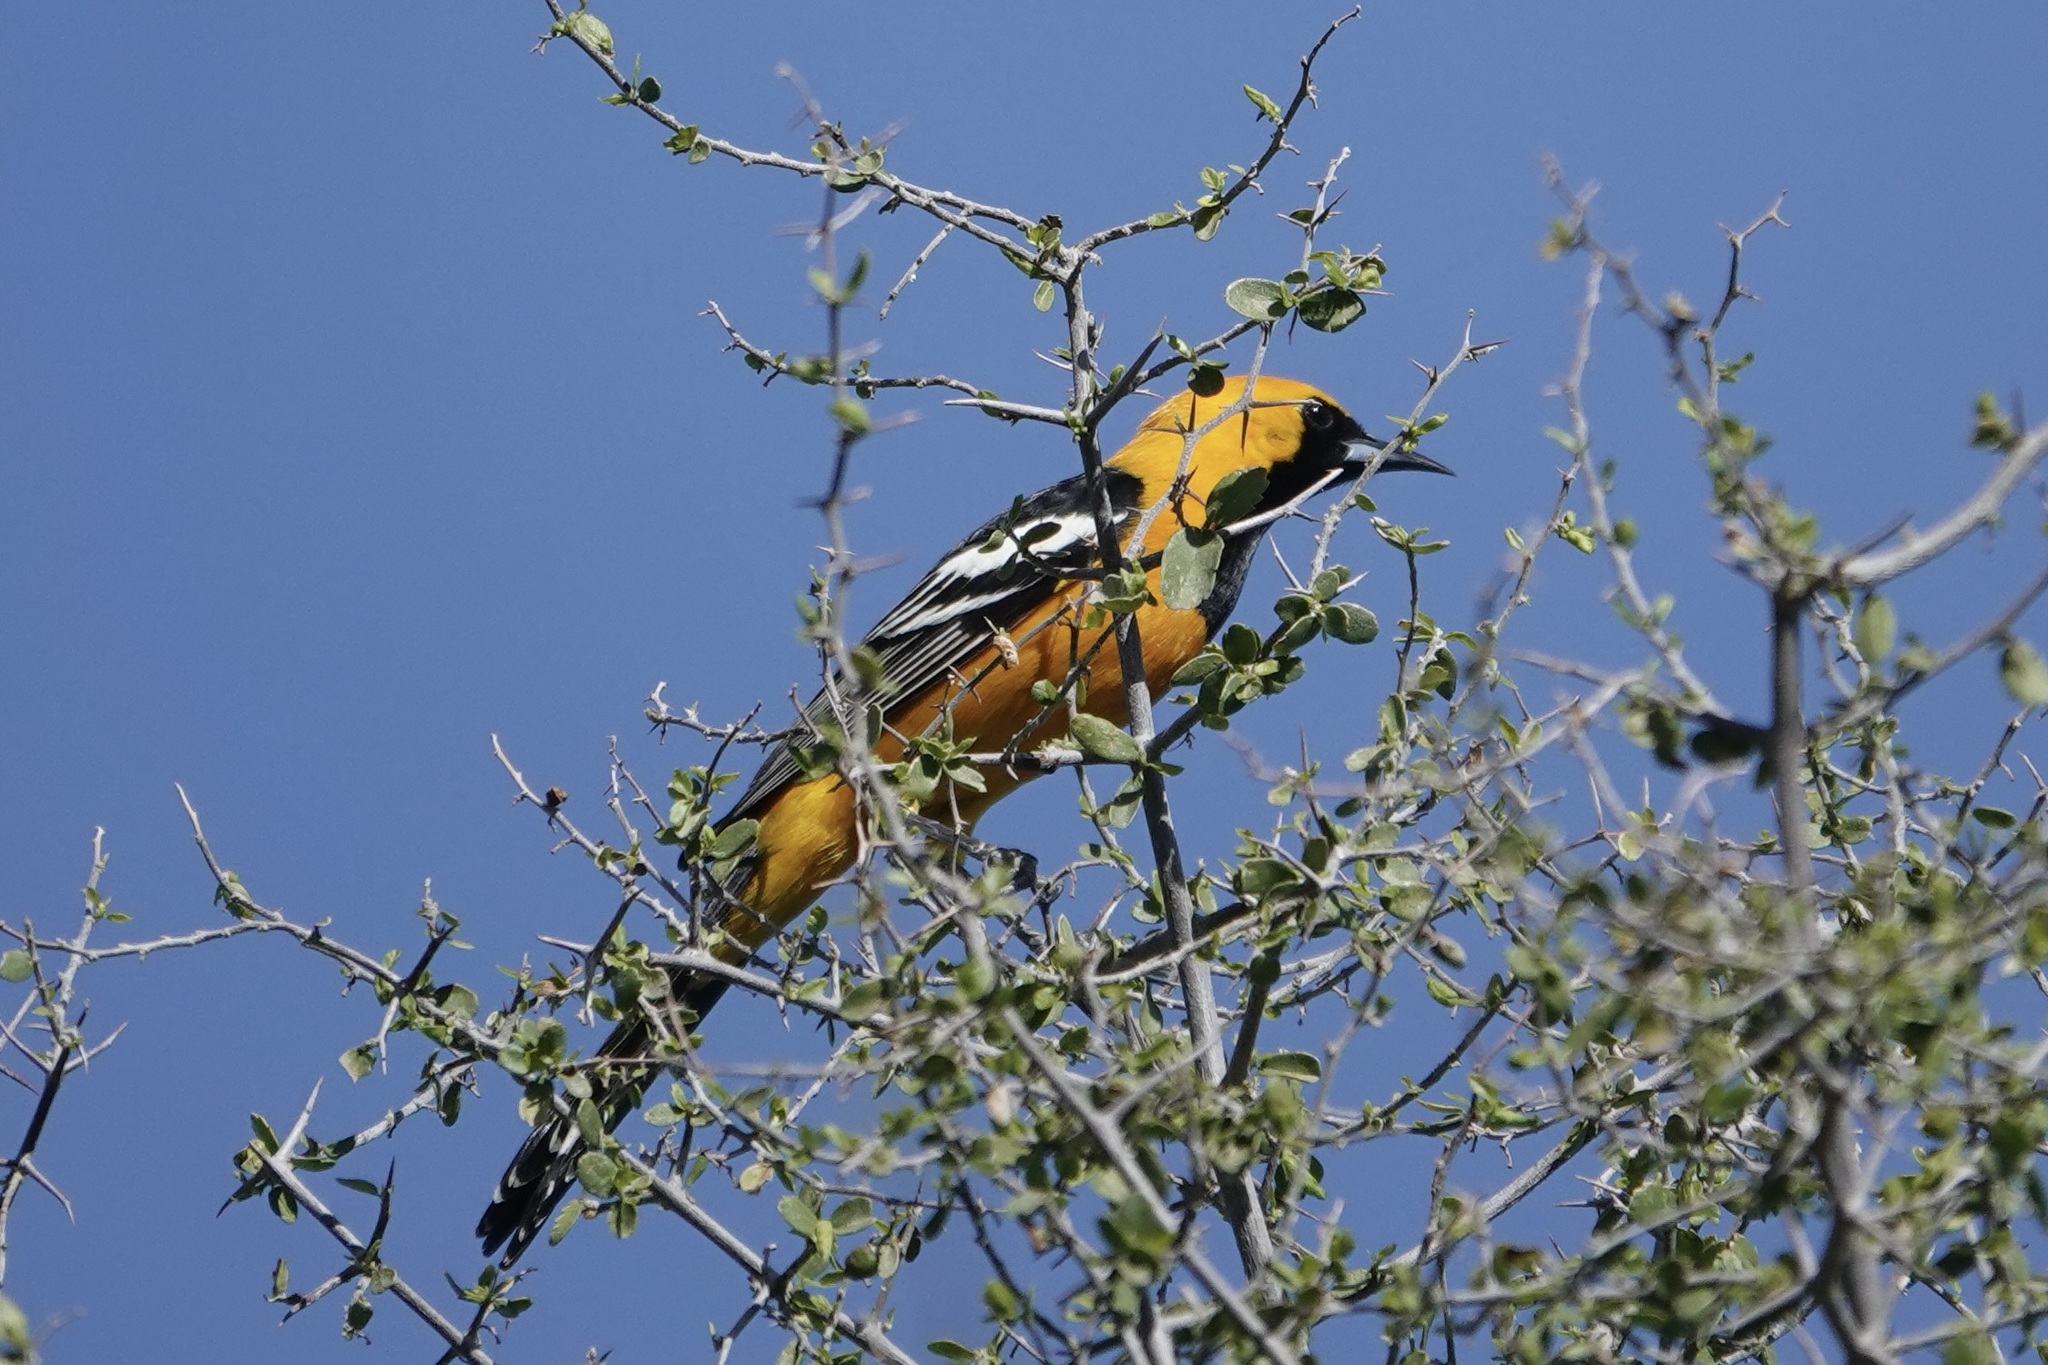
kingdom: Animalia
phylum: Chordata
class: Aves
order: Passeriformes
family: Icteridae
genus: Icterus
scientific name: Icterus cucullatus
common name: Hooded oriole
